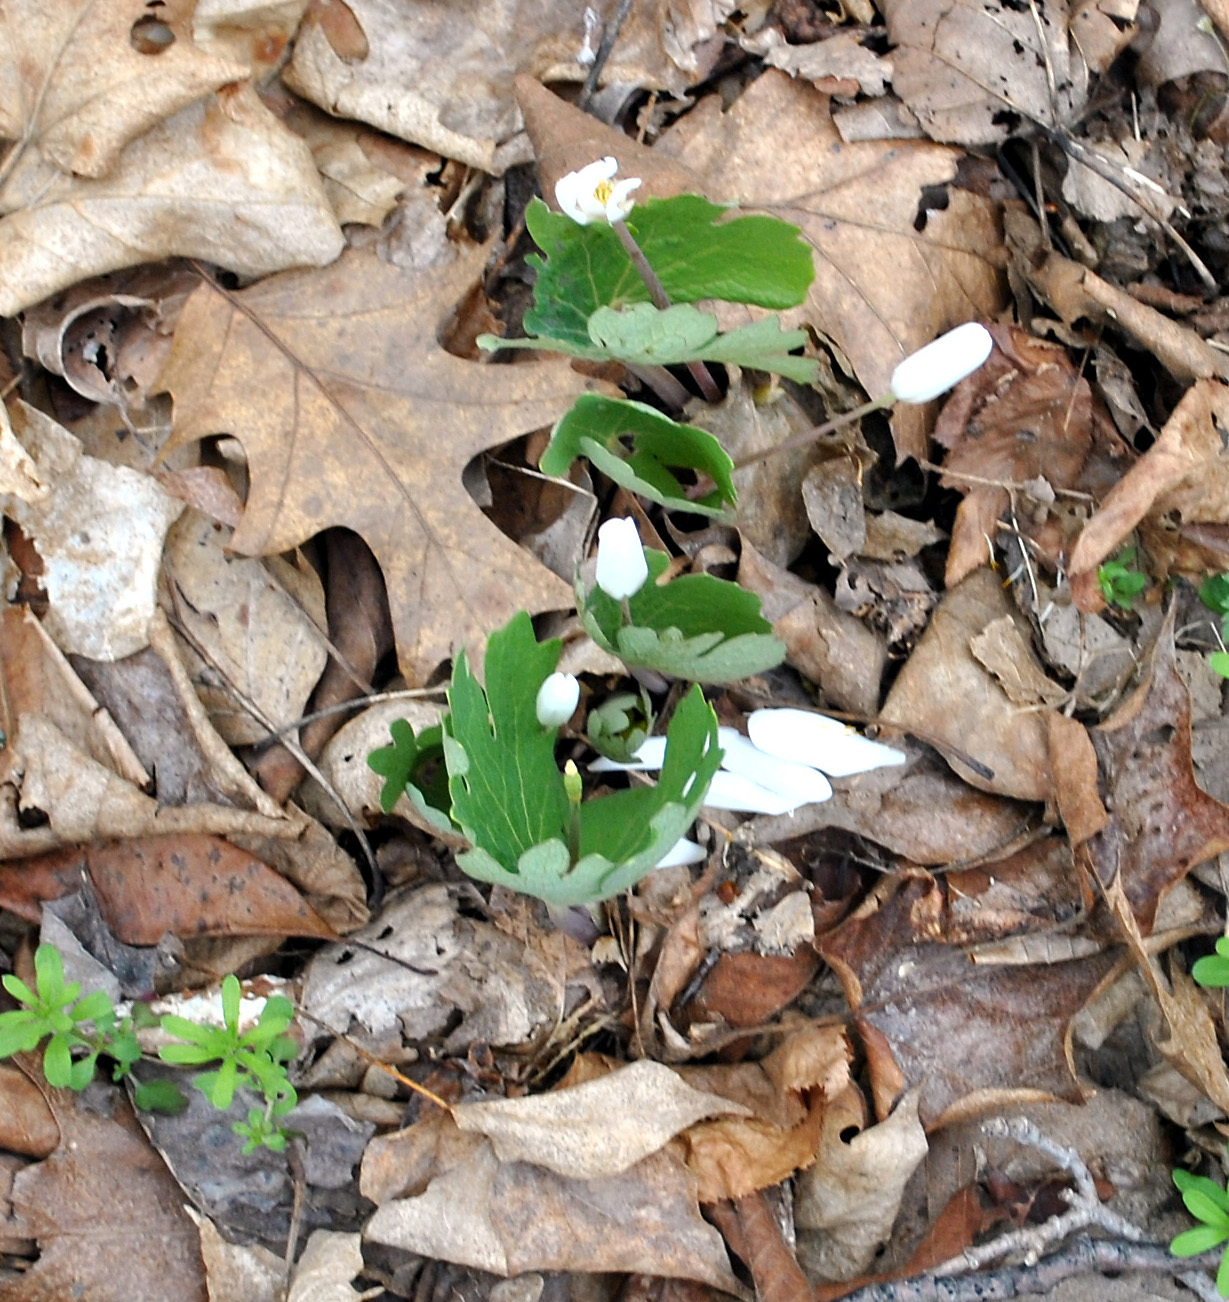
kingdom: Plantae
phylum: Tracheophyta
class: Magnoliopsida
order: Ranunculales
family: Papaveraceae
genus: Sanguinaria
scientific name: Sanguinaria canadensis
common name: Bloodroot
